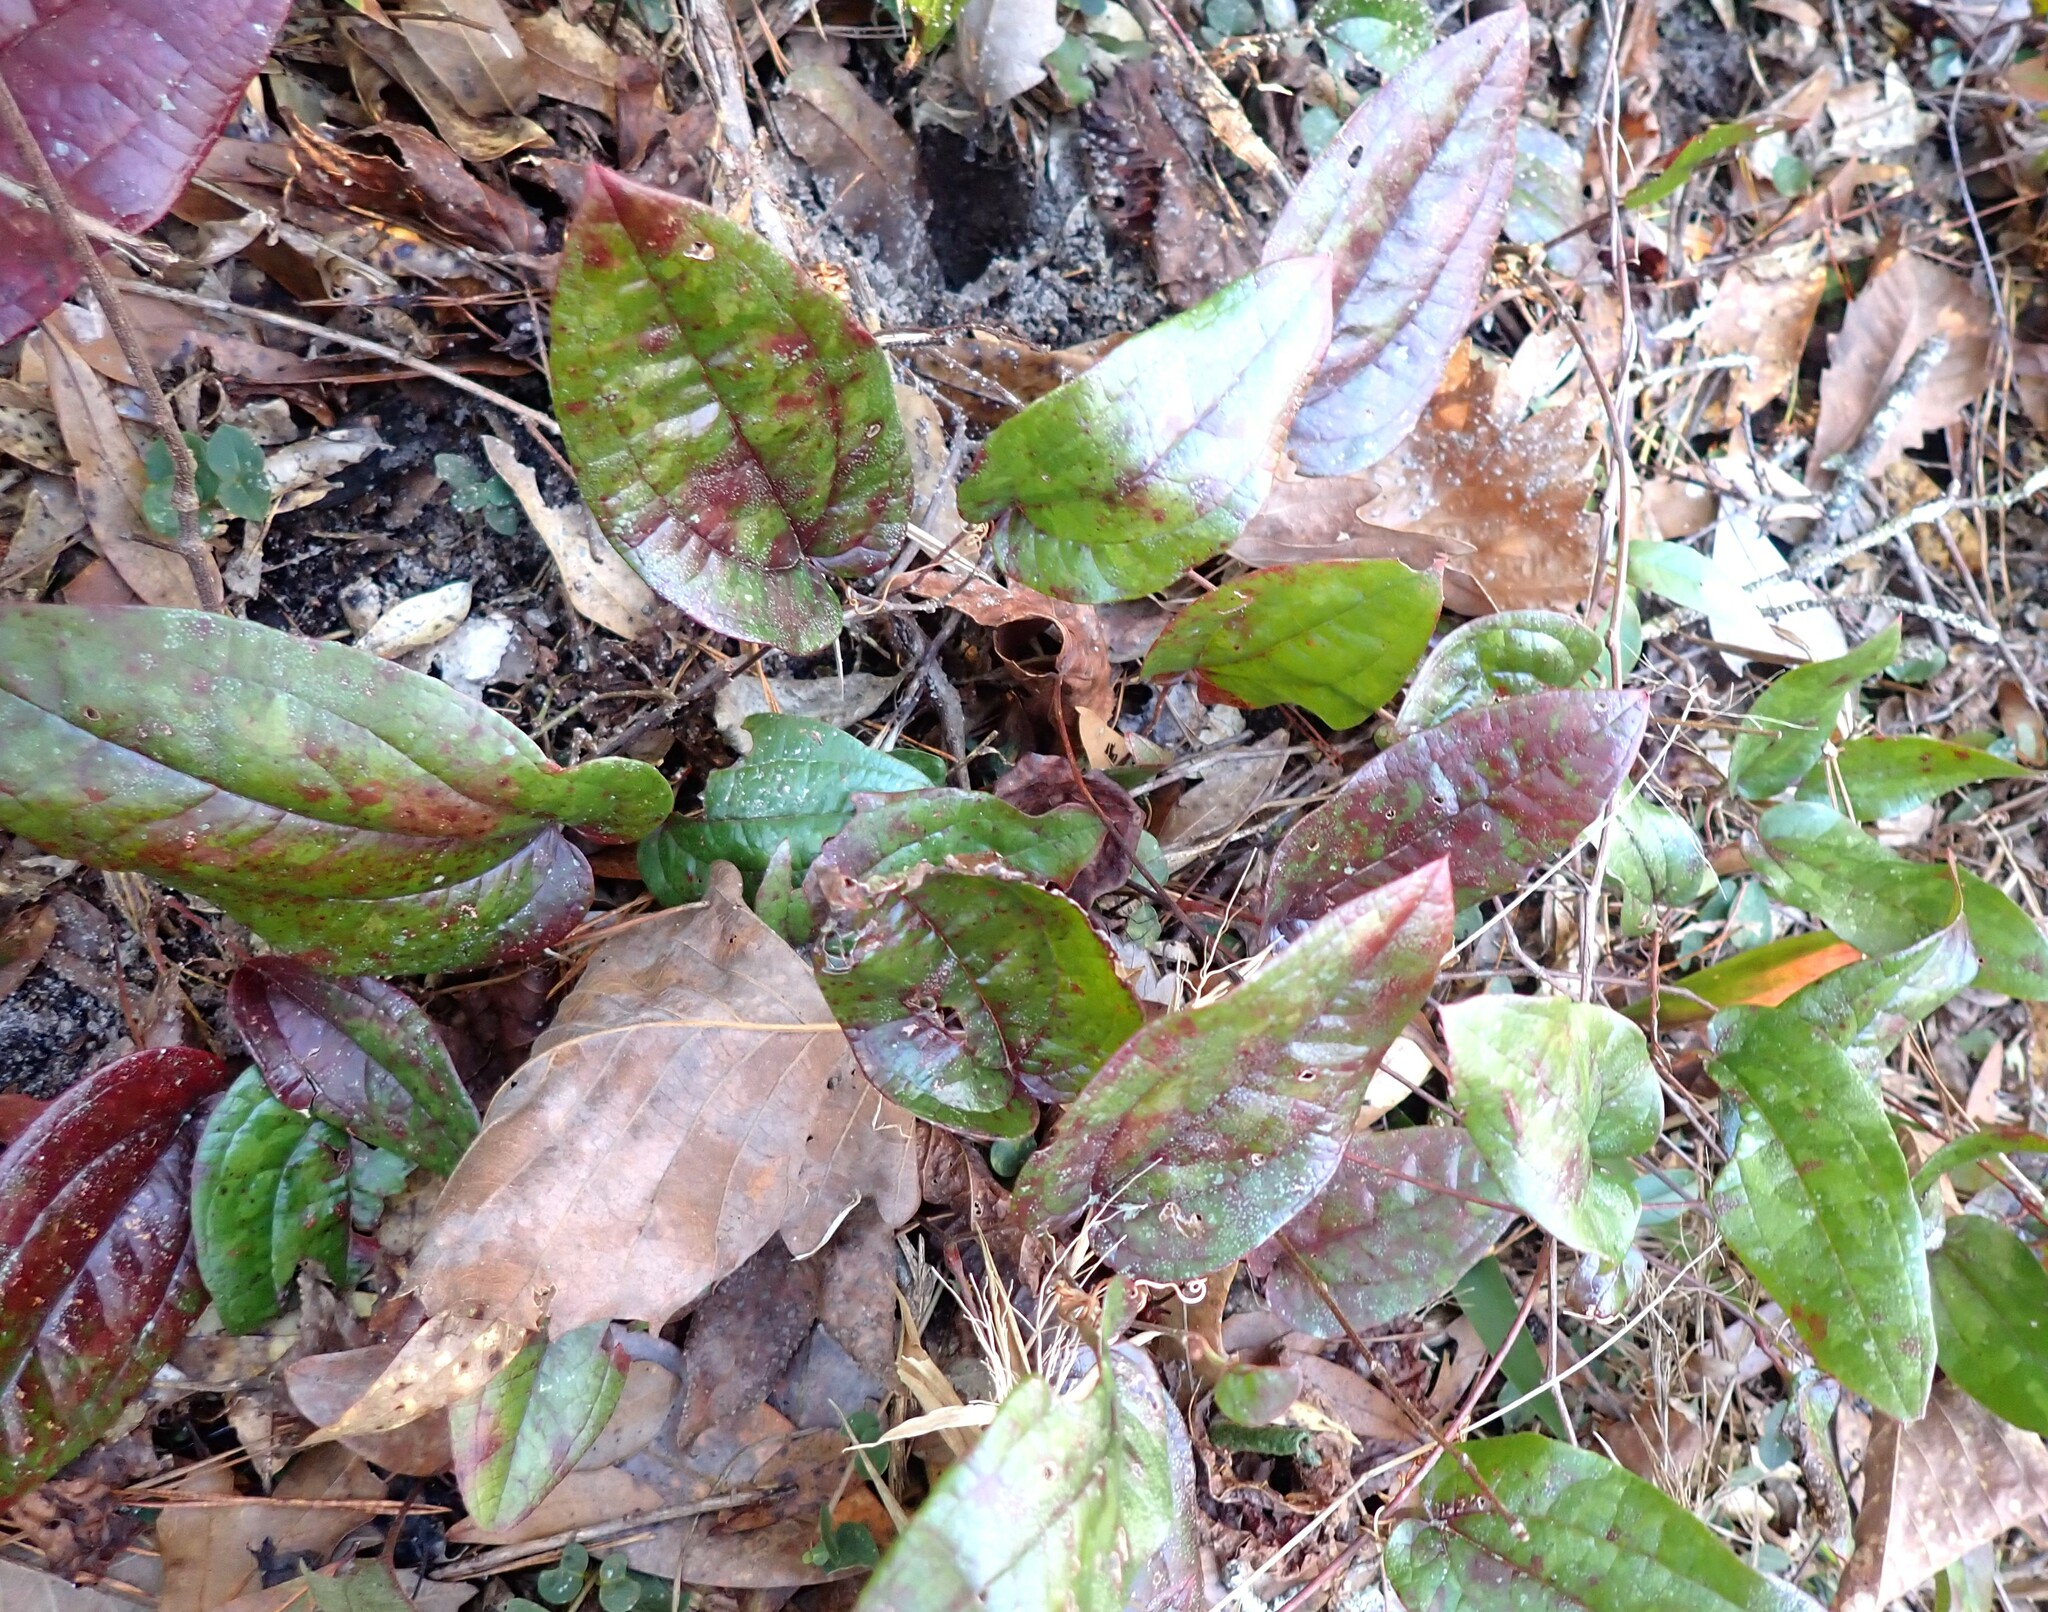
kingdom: Plantae
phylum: Tracheophyta
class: Liliopsida
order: Liliales
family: Smilacaceae
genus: Smilax
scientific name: Smilax pumila
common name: Sarsaparilla-vine
